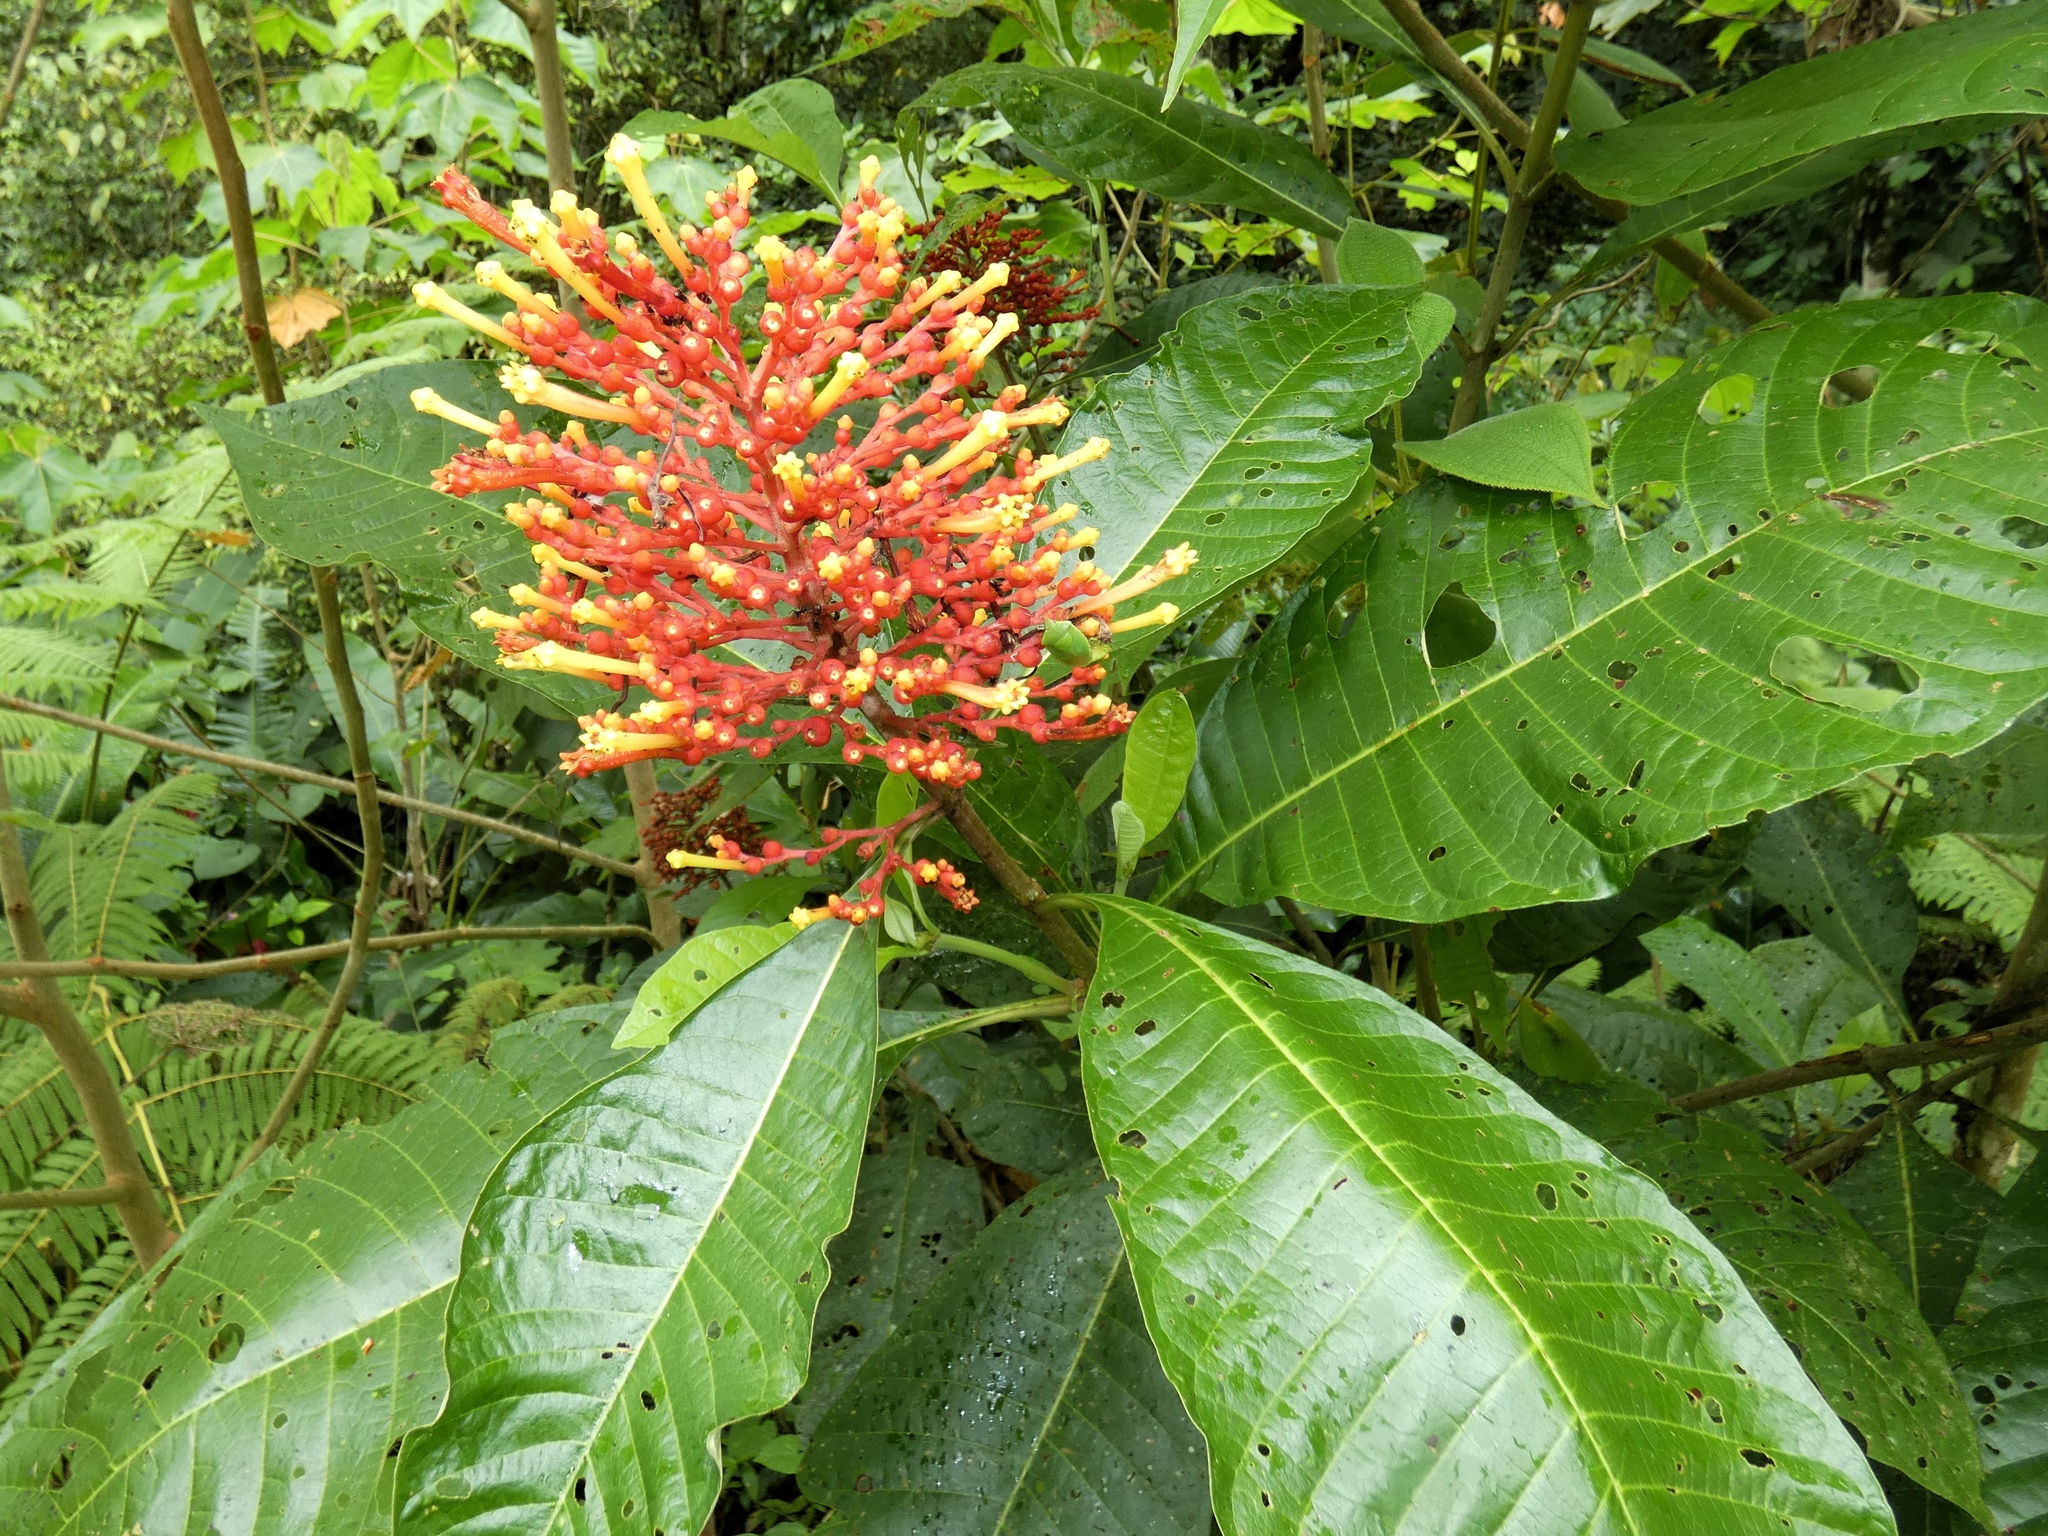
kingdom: Plantae
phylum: Tracheophyta
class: Magnoliopsida
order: Gentianales
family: Rubiaceae
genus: Isertia
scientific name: Isertia haenkeana
